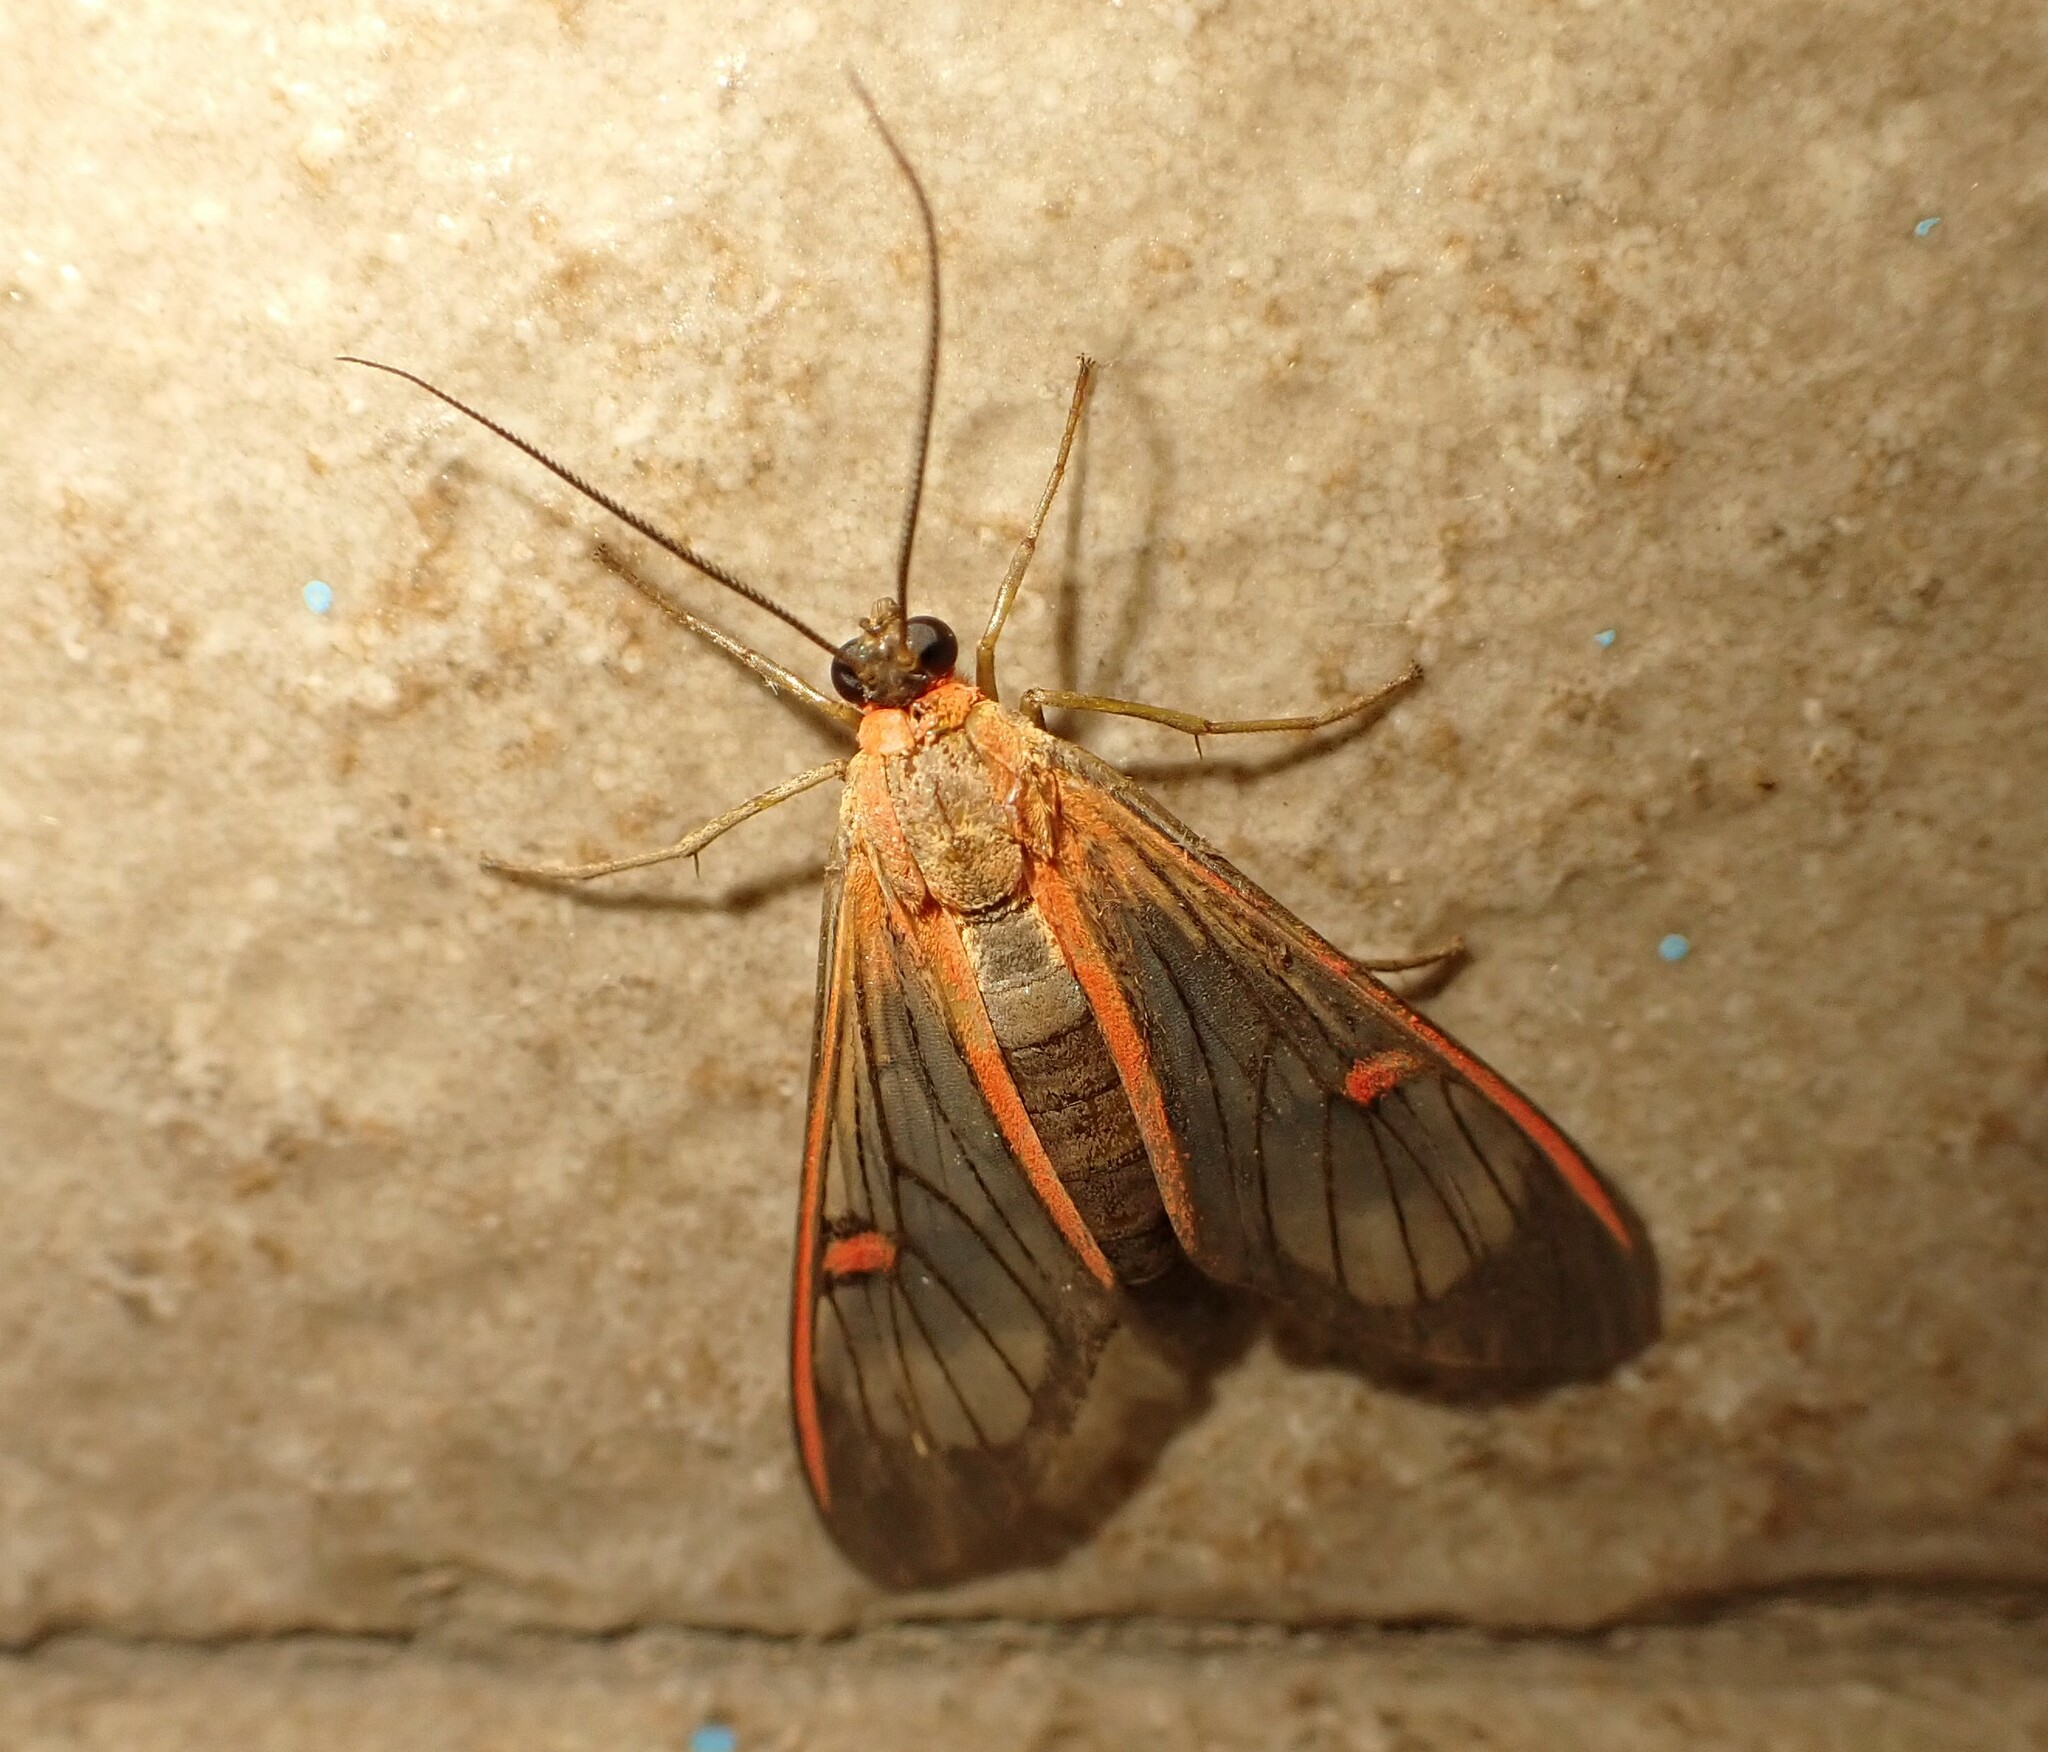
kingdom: Animalia
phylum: Arthropoda
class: Insecta
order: Lepidoptera
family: Erebidae
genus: Lepidoneiva
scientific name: Lepidoneiva erubescens
